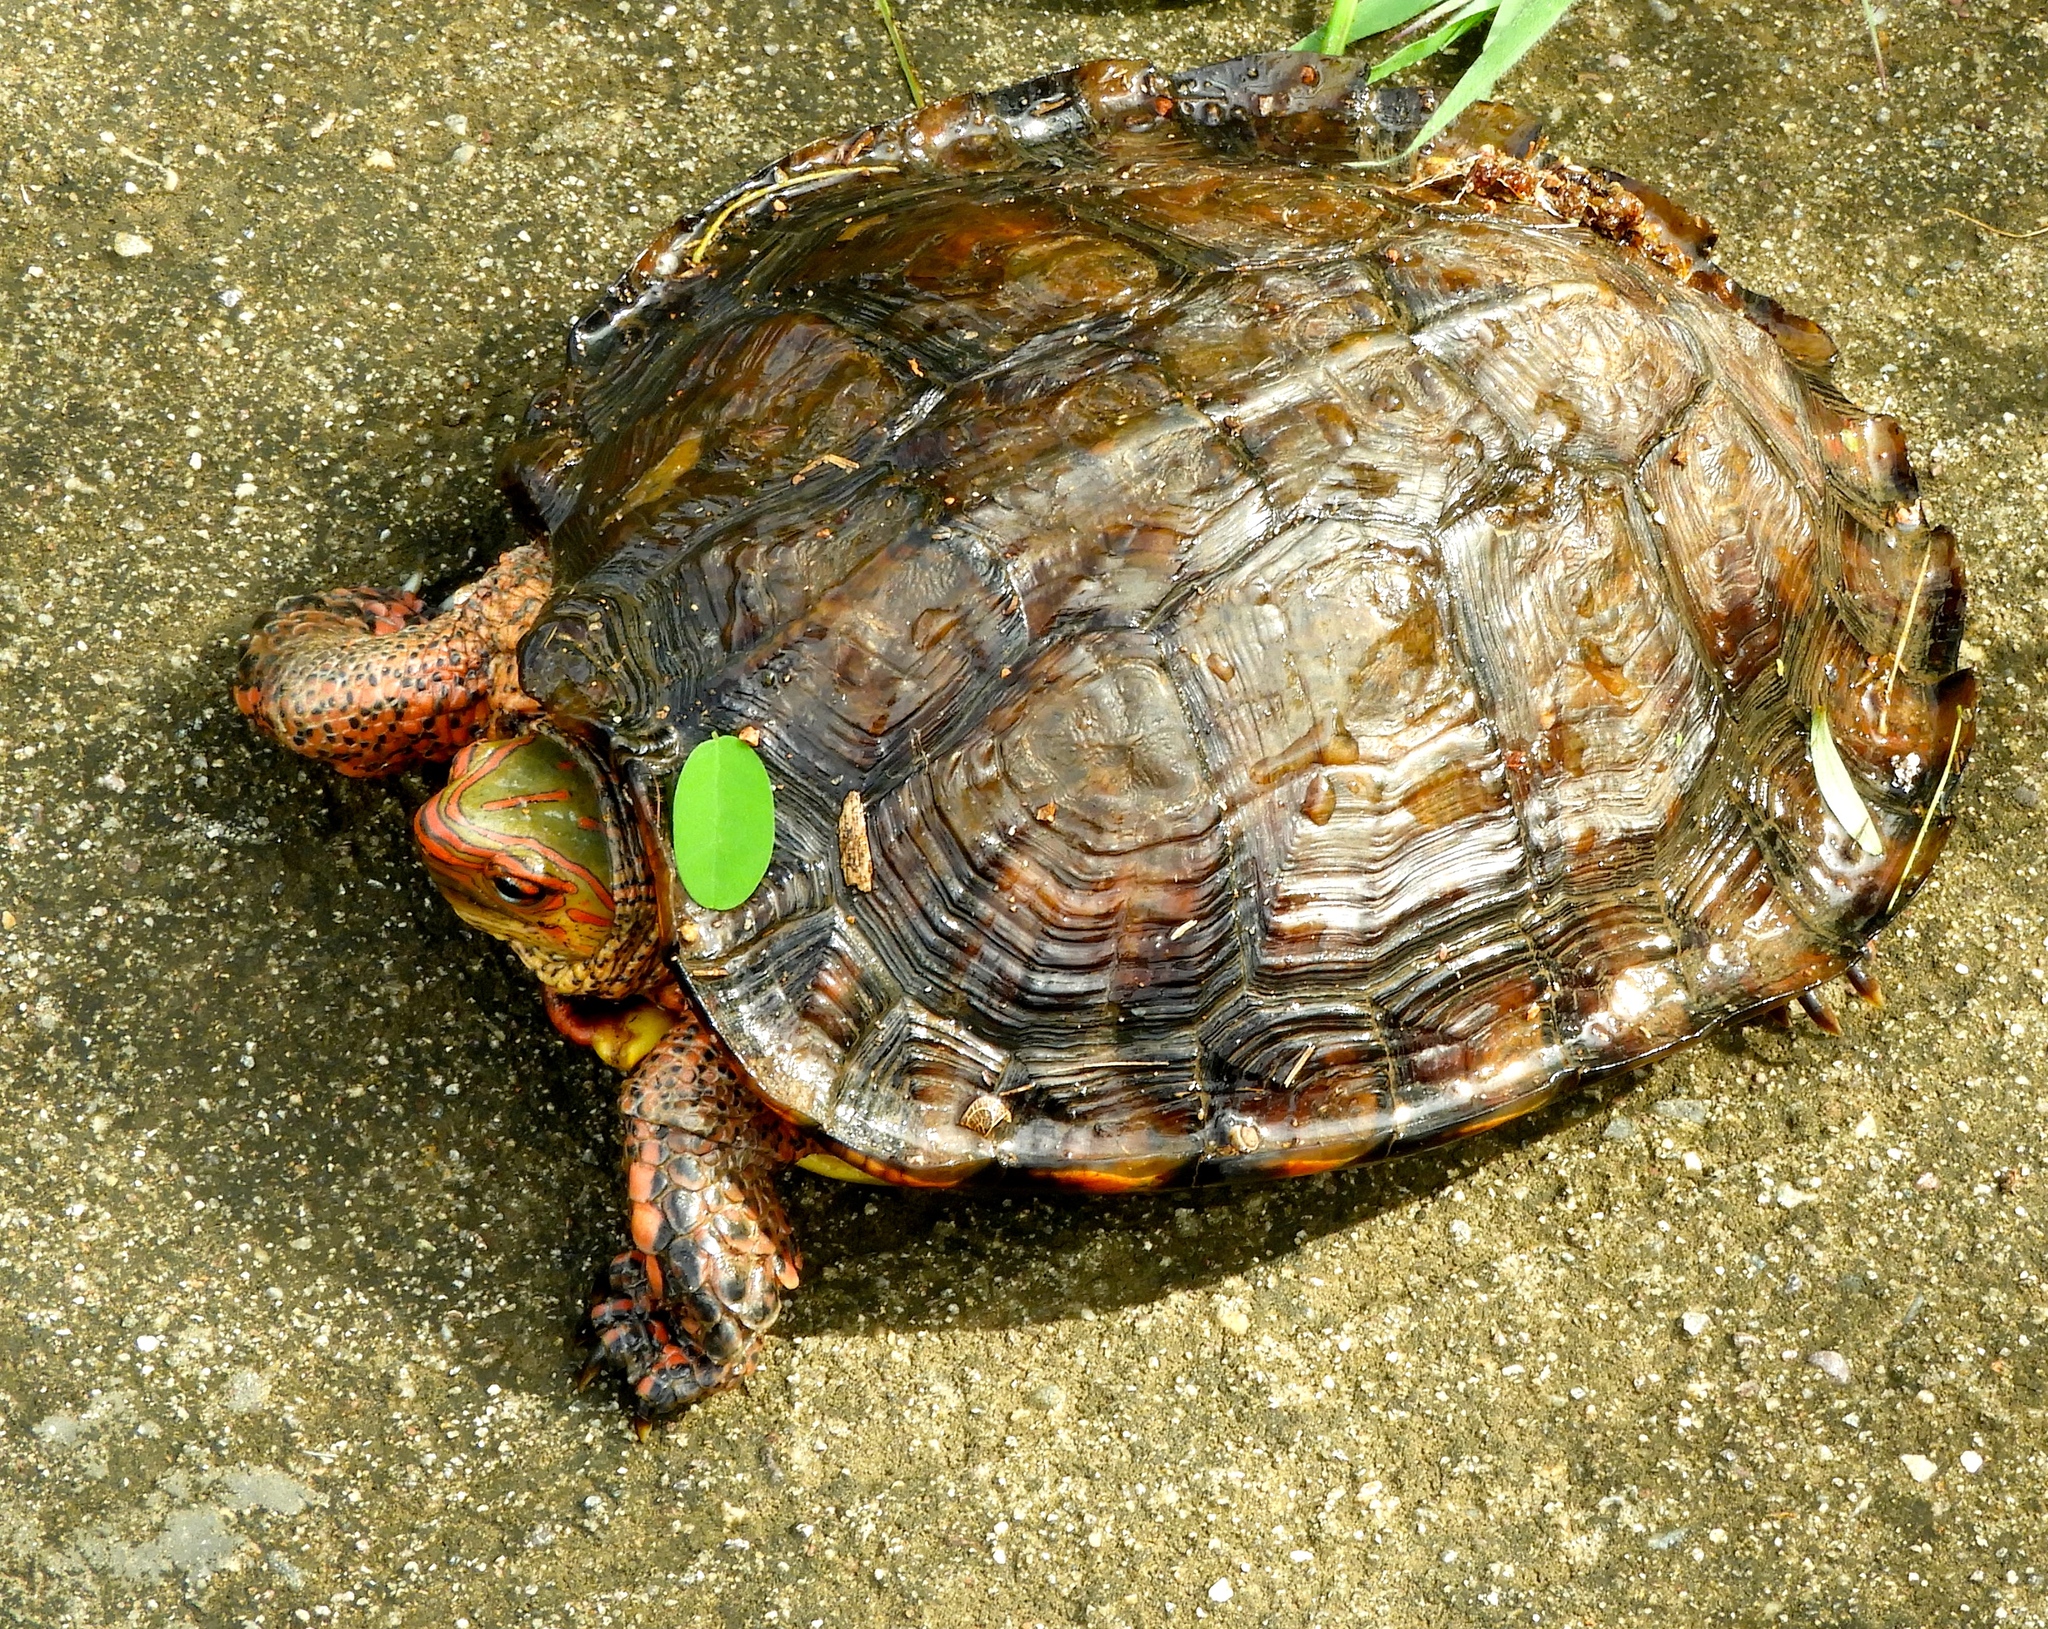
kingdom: Animalia
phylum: Chordata
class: Testudines
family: Geoemydidae
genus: Rhinoclemmys
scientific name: Rhinoclemmys pulcherrima
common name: Painted wood turtle
